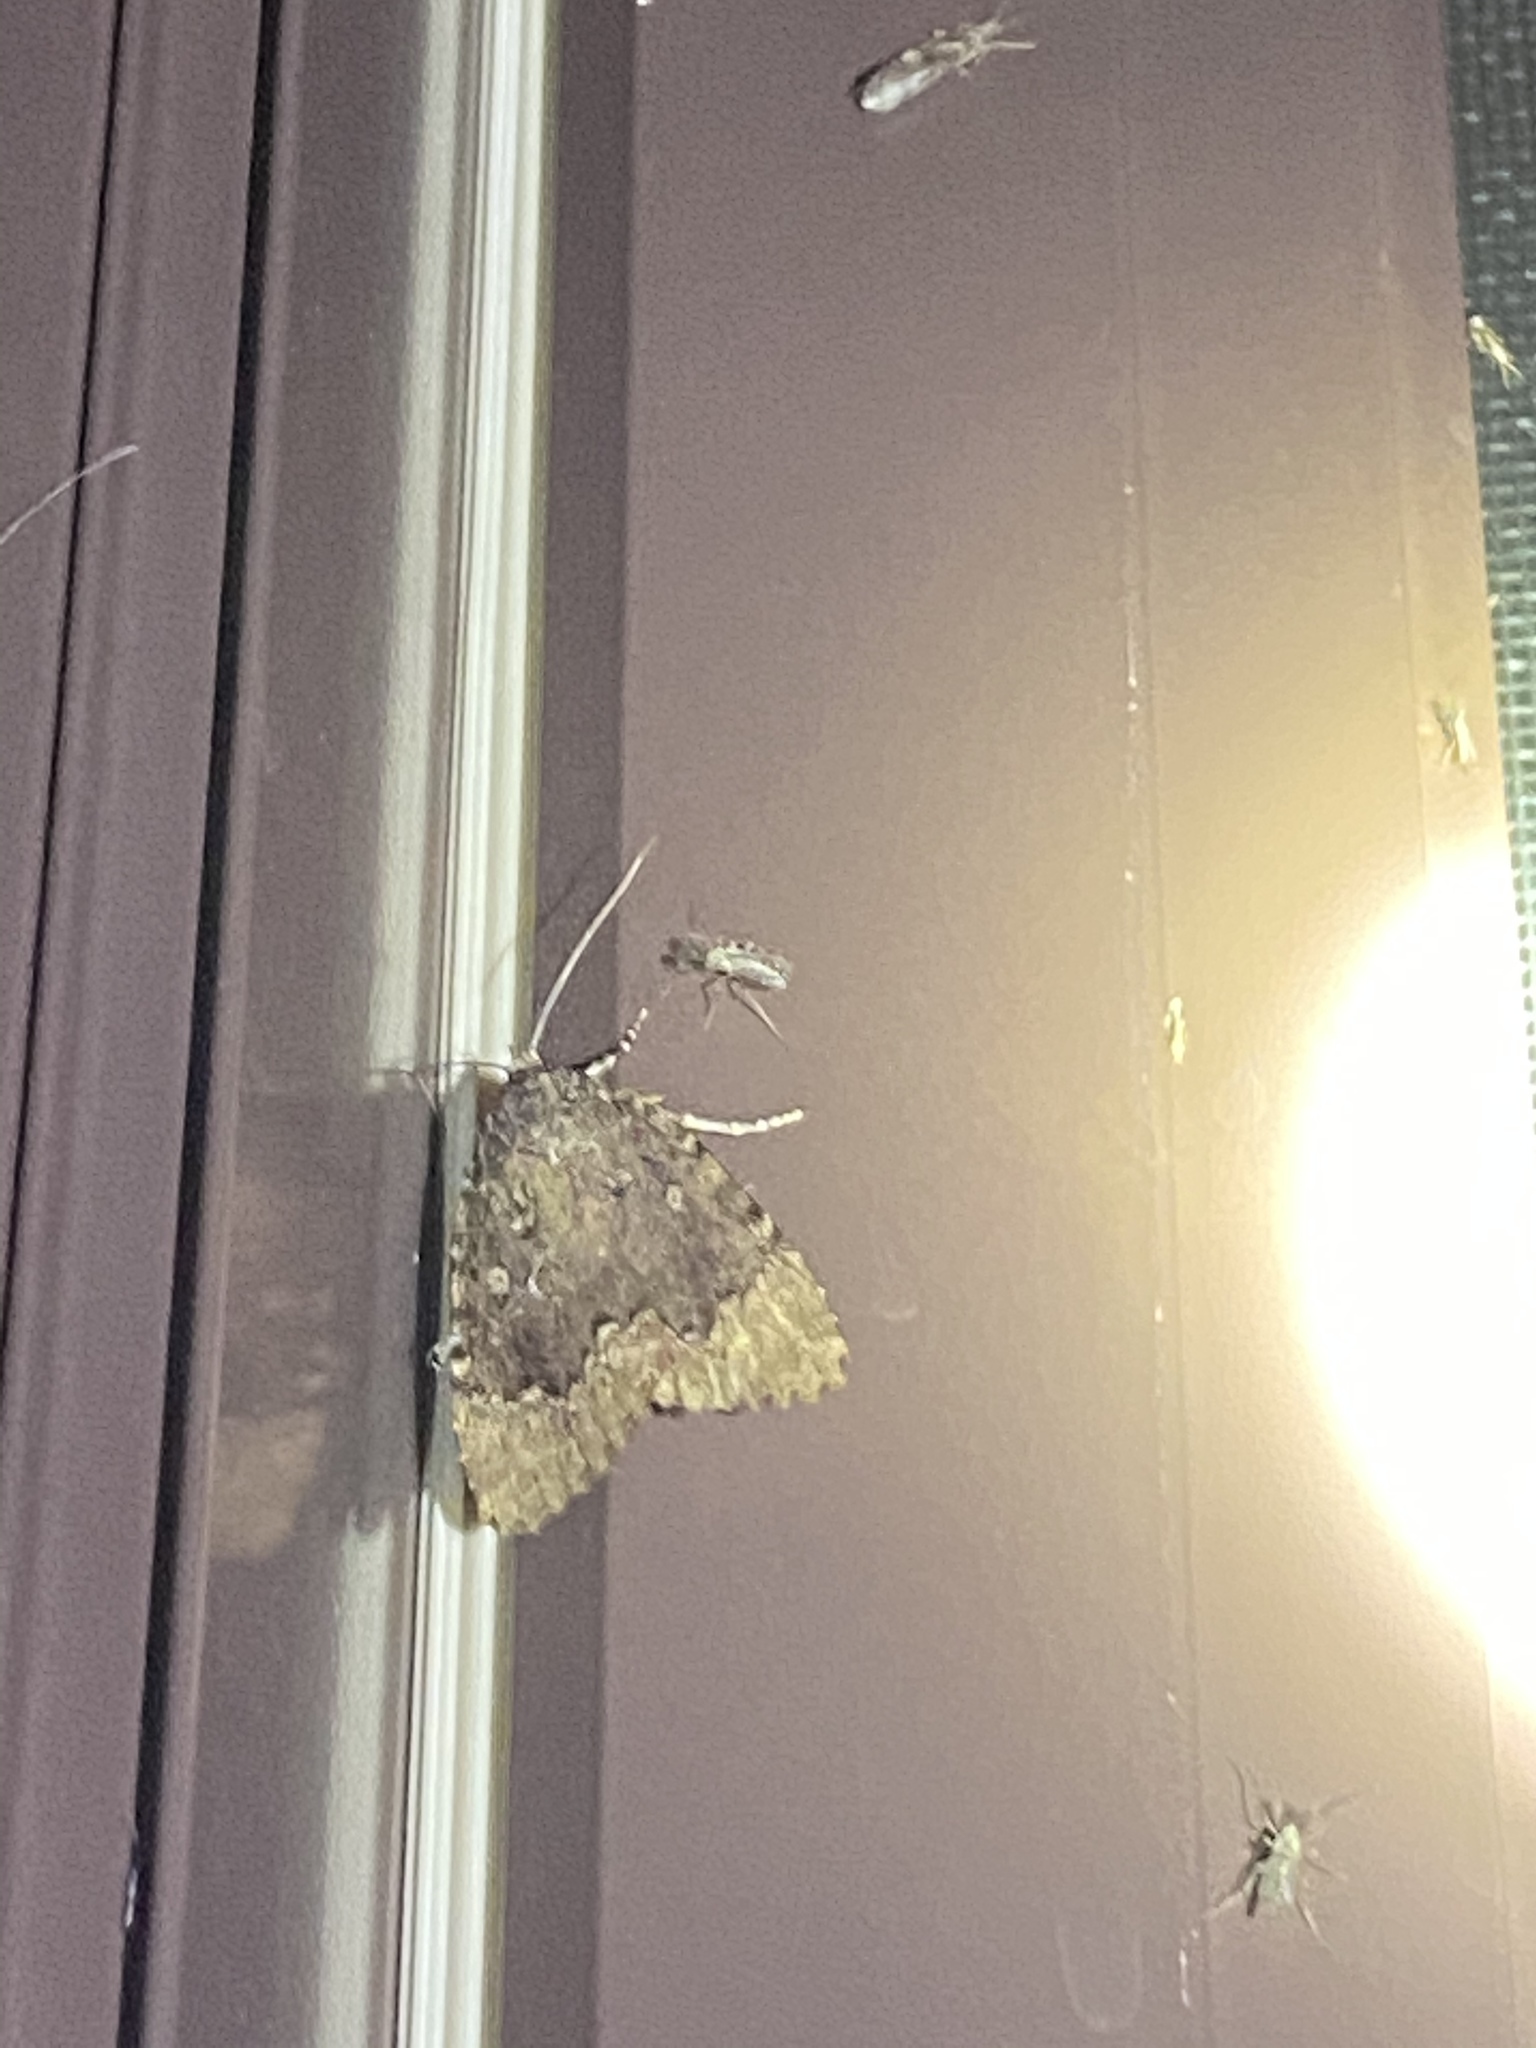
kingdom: Animalia
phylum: Arthropoda
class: Insecta
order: Lepidoptera
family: Noctuidae
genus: Amphipyra
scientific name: Amphipyra pyramidoides
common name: American copper underwing
